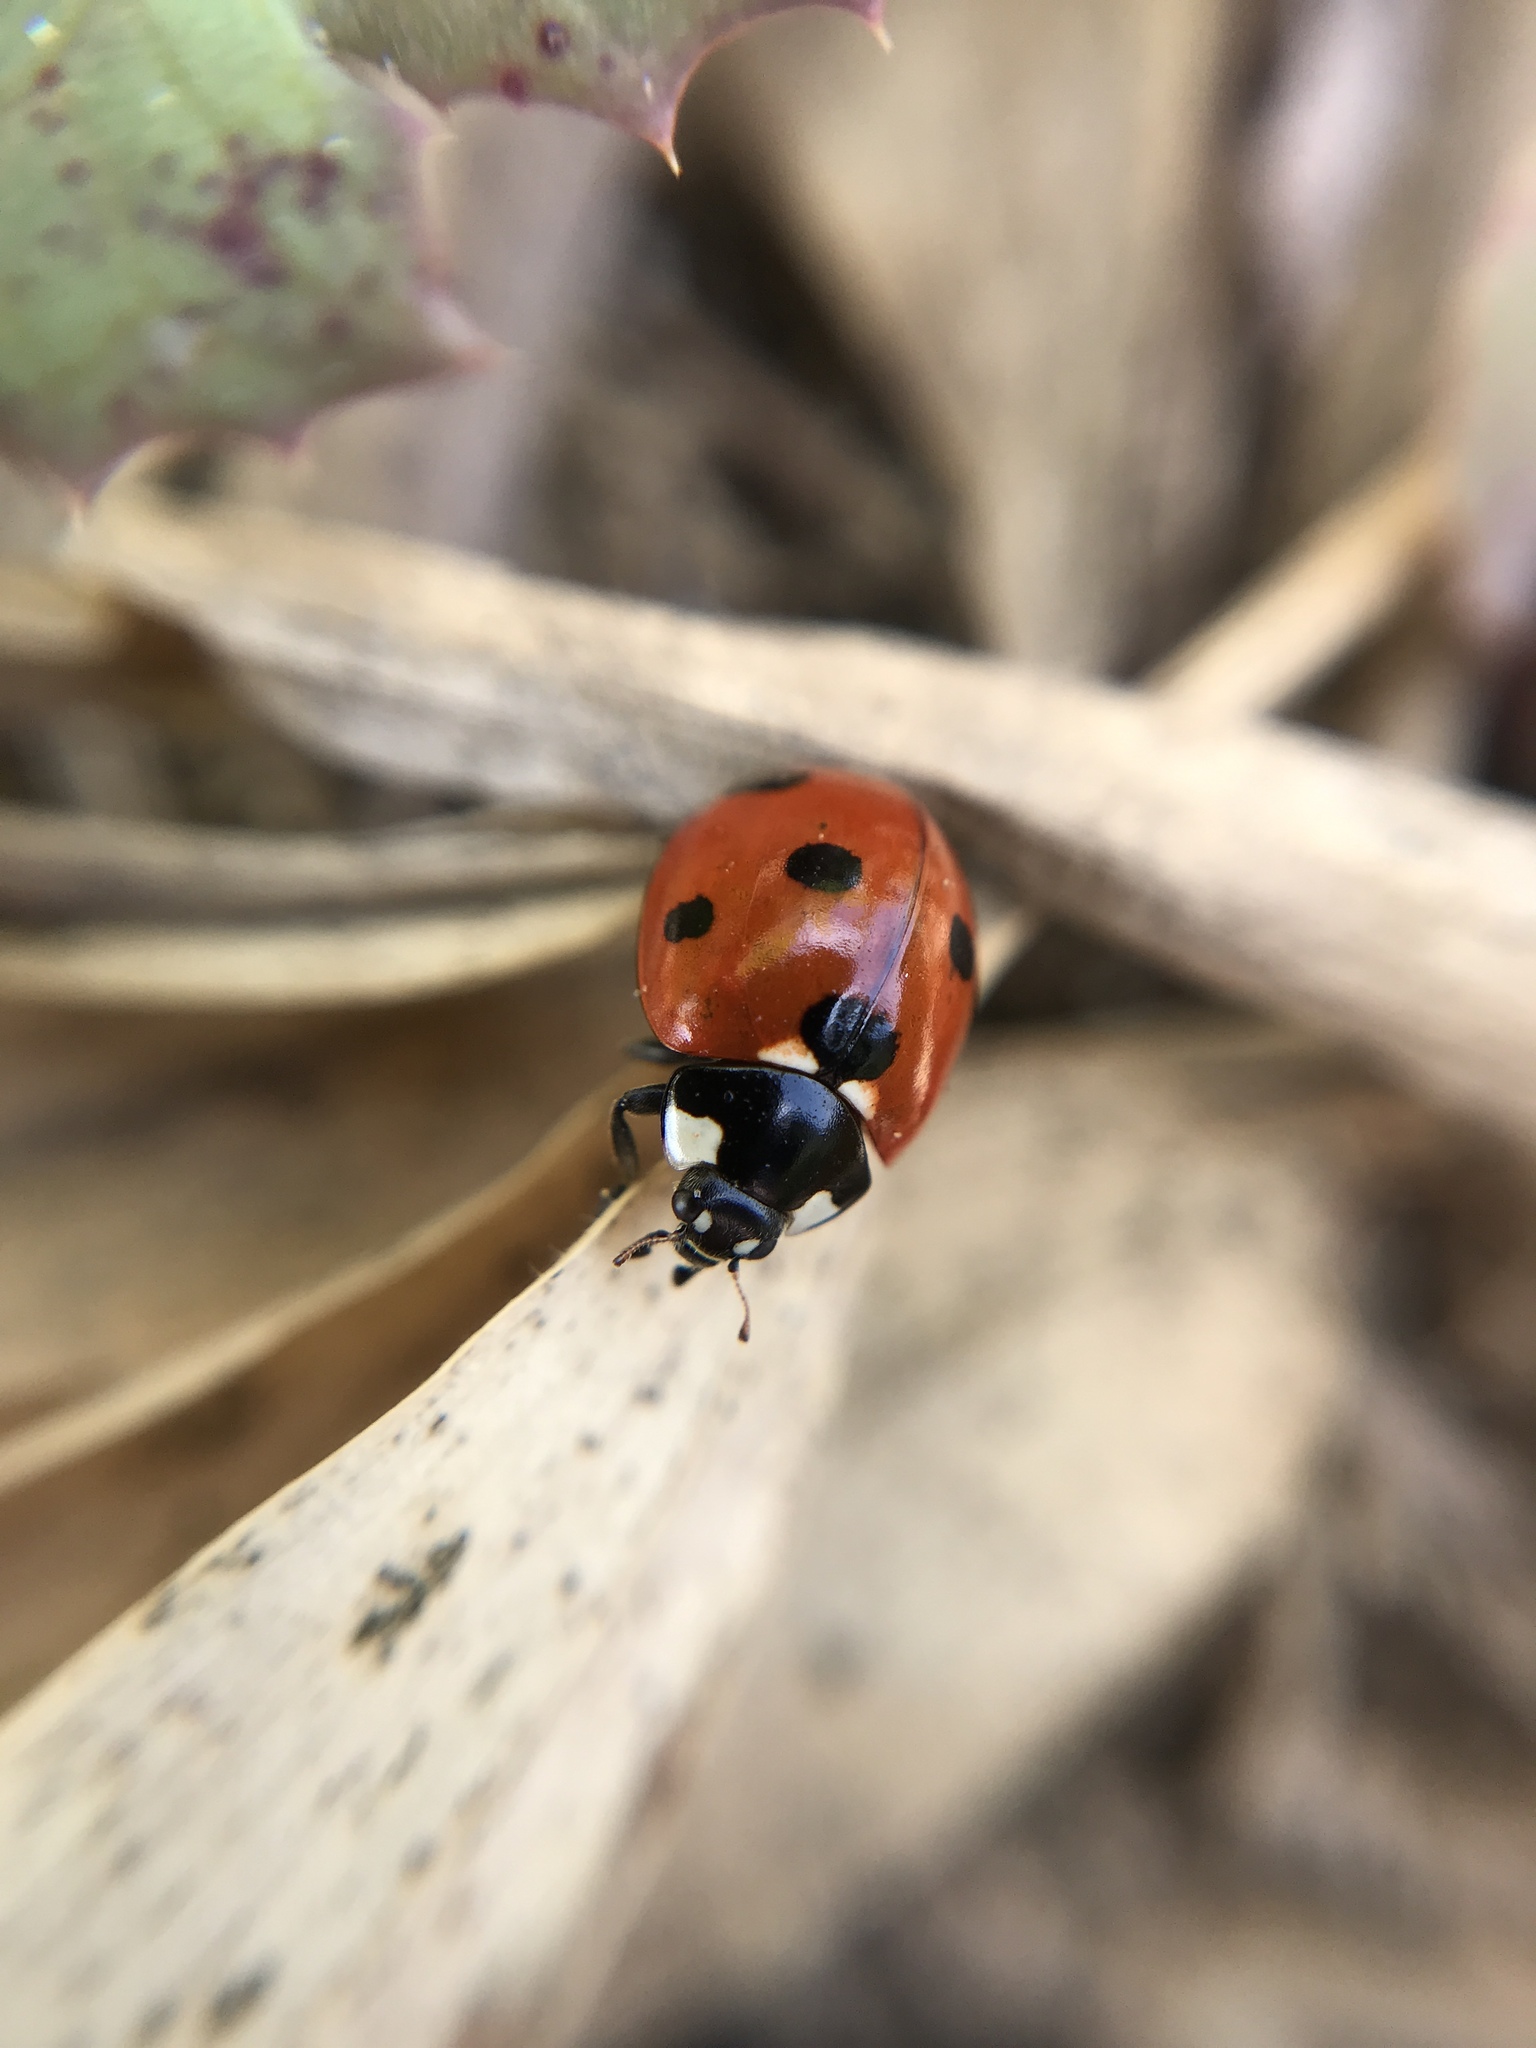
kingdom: Animalia
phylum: Arthropoda
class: Insecta
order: Coleoptera
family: Coccinellidae
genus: Coccinella
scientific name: Coccinella septempunctata
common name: Sevenspotted lady beetle
